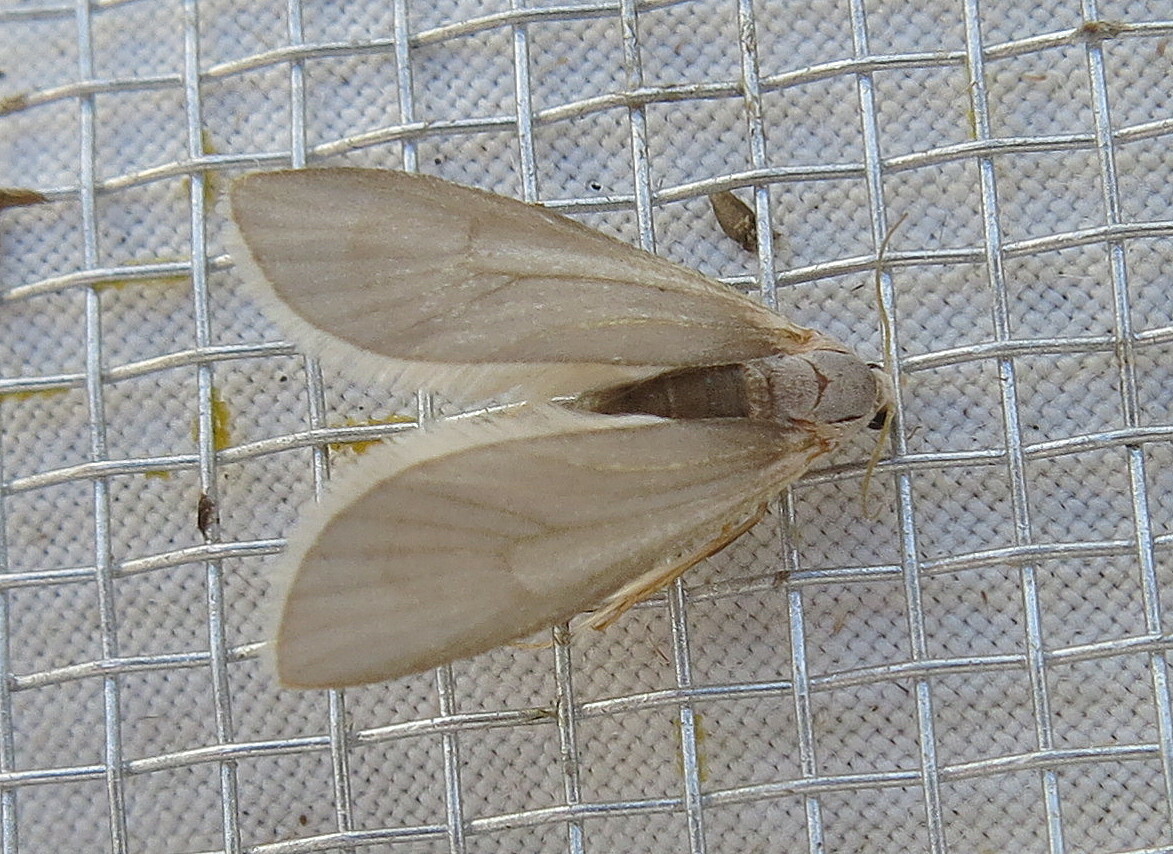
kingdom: Animalia
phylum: Arthropoda
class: Insecta
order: Lepidoptera
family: Crambidae
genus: Acentria
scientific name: Acentria ephemerella
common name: European water moth
